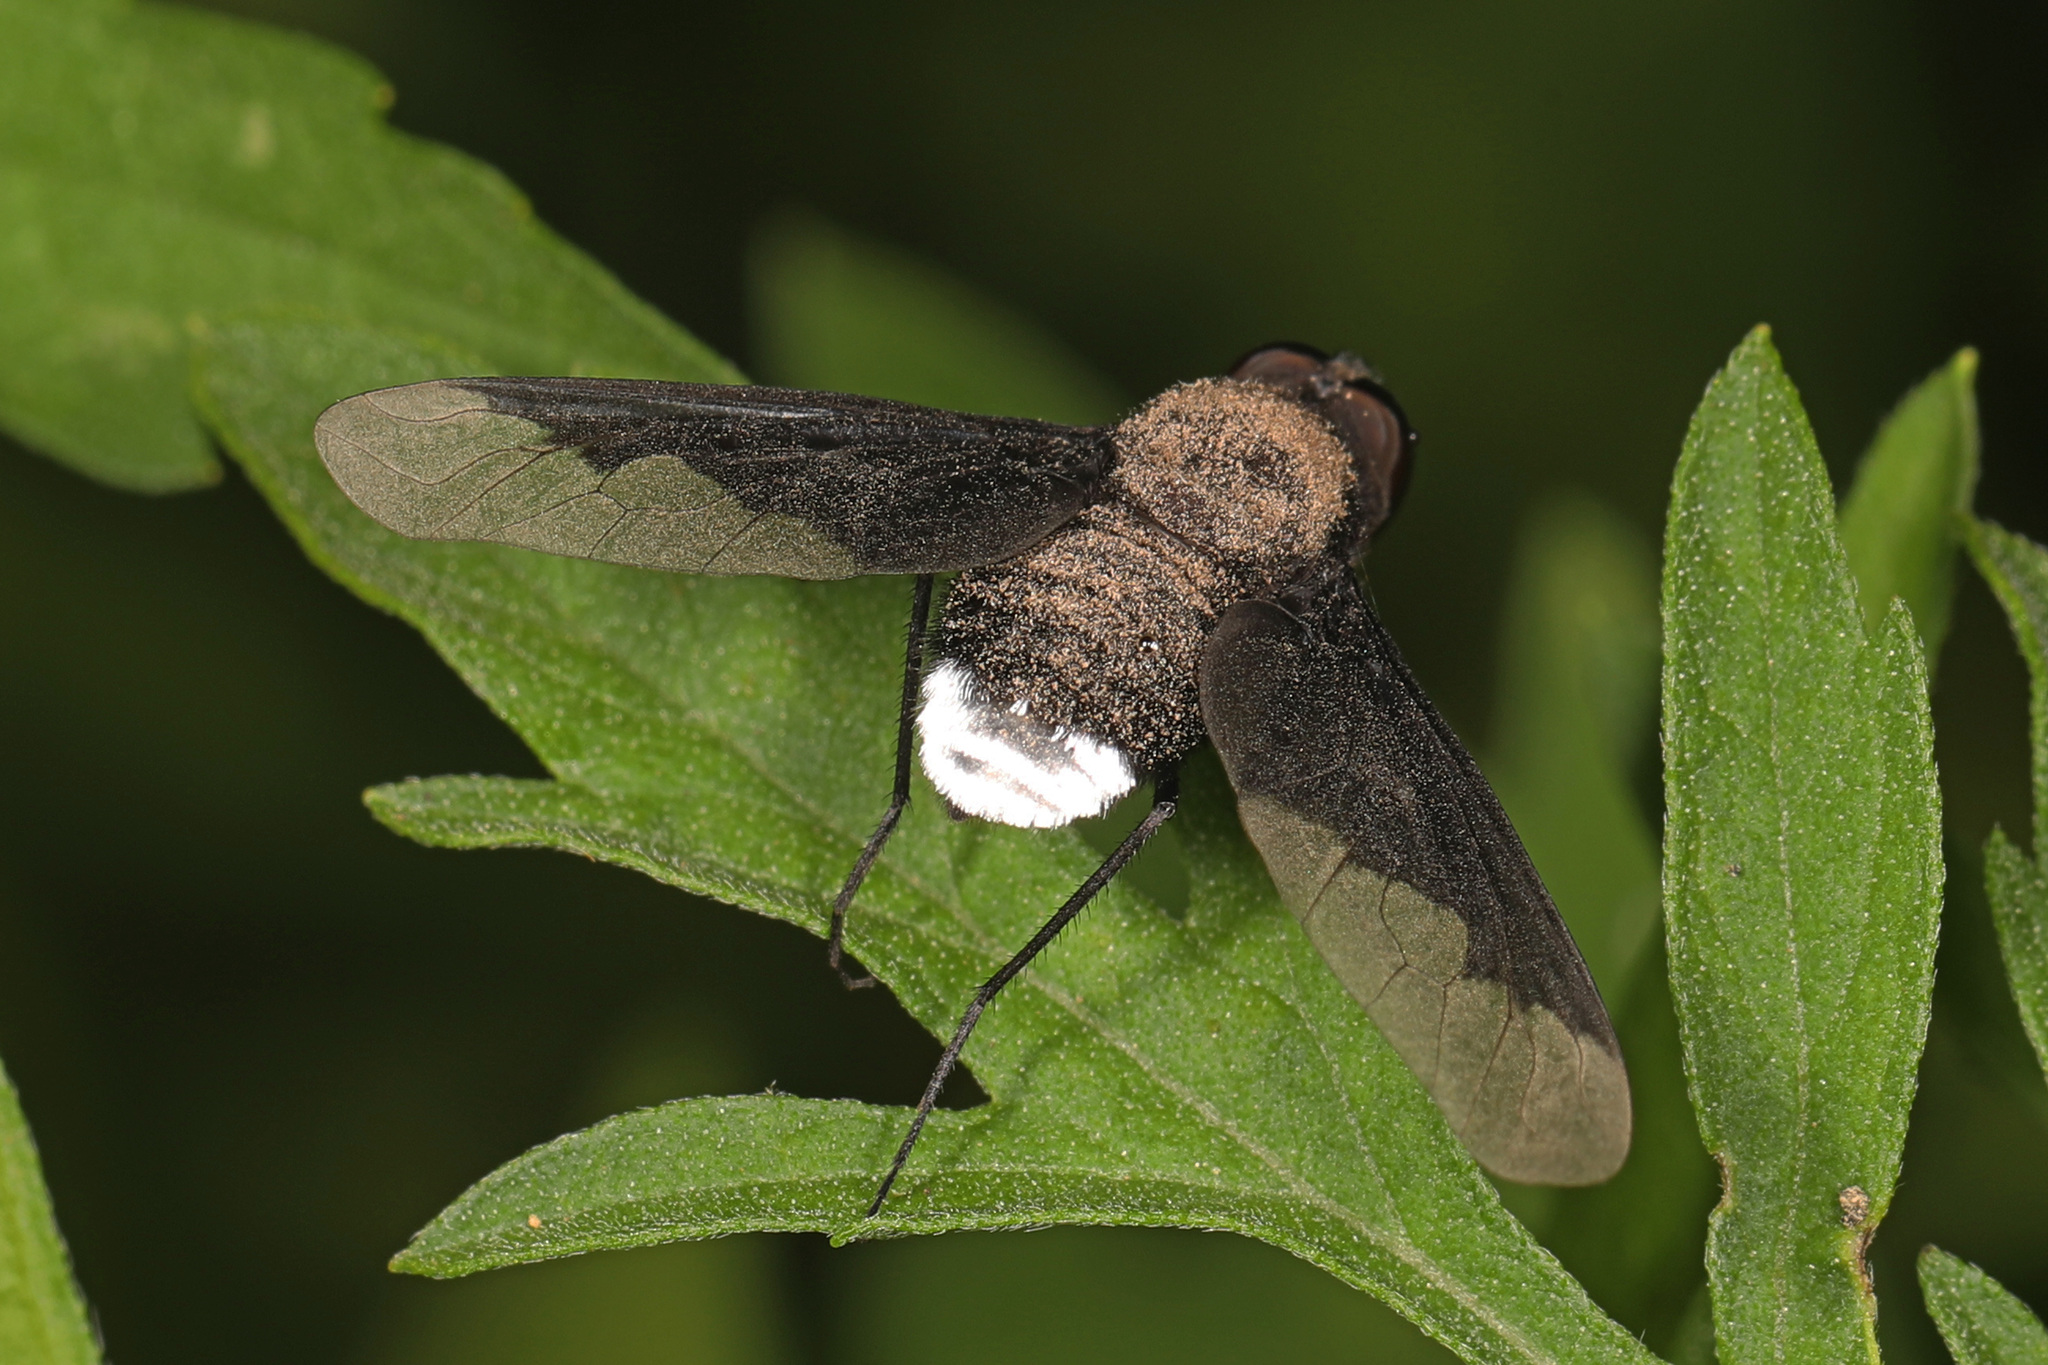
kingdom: Animalia
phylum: Arthropoda
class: Insecta
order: Diptera
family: Bombyliidae
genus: Anthrax
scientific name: Anthrax analis
